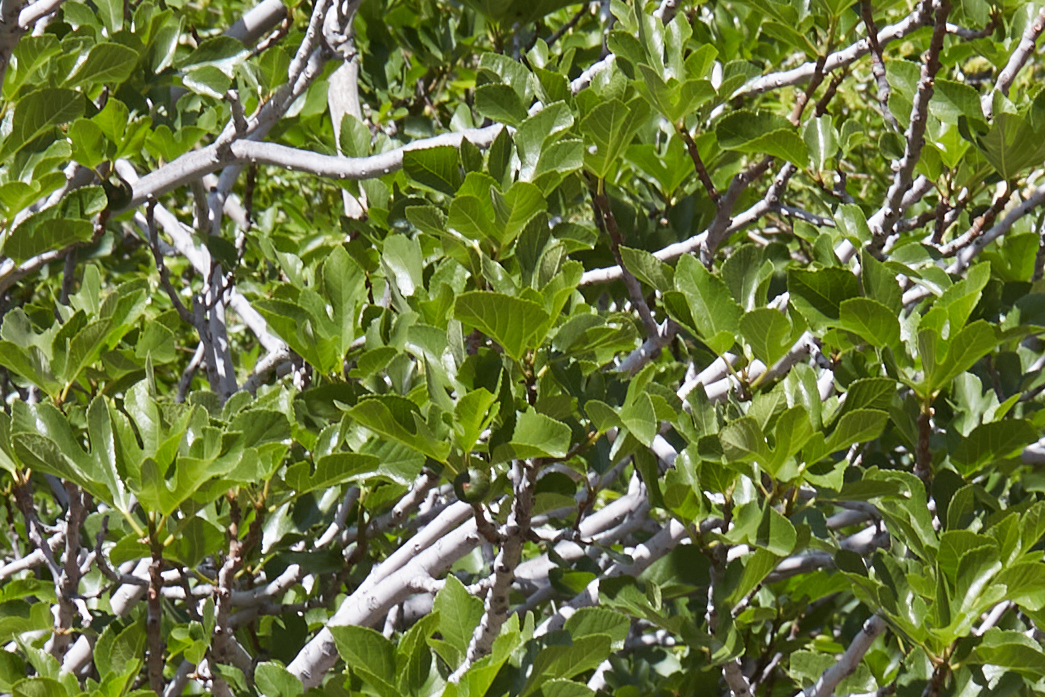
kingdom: Plantae
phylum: Tracheophyta
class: Magnoliopsida
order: Rosales
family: Moraceae
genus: Ficus
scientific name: Ficus carica
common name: Fig
